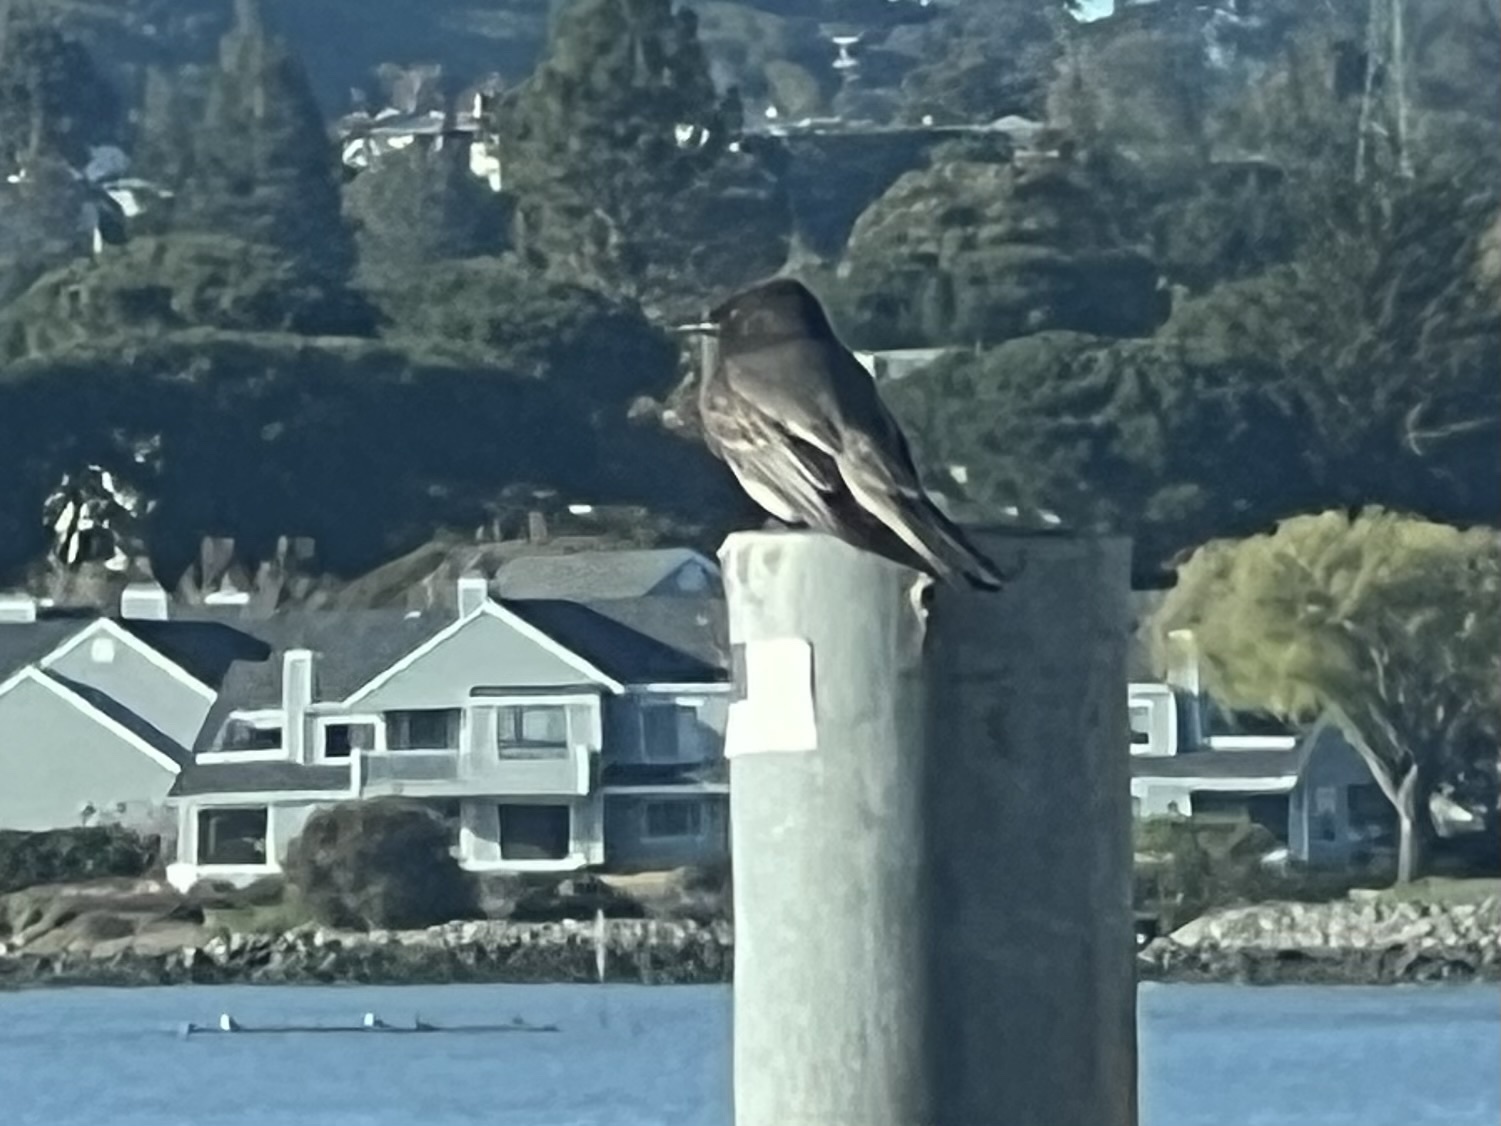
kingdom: Animalia
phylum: Chordata
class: Aves
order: Passeriformes
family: Tyrannidae
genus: Sayornis
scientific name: Sayornis nigricans
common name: Black phoebe
